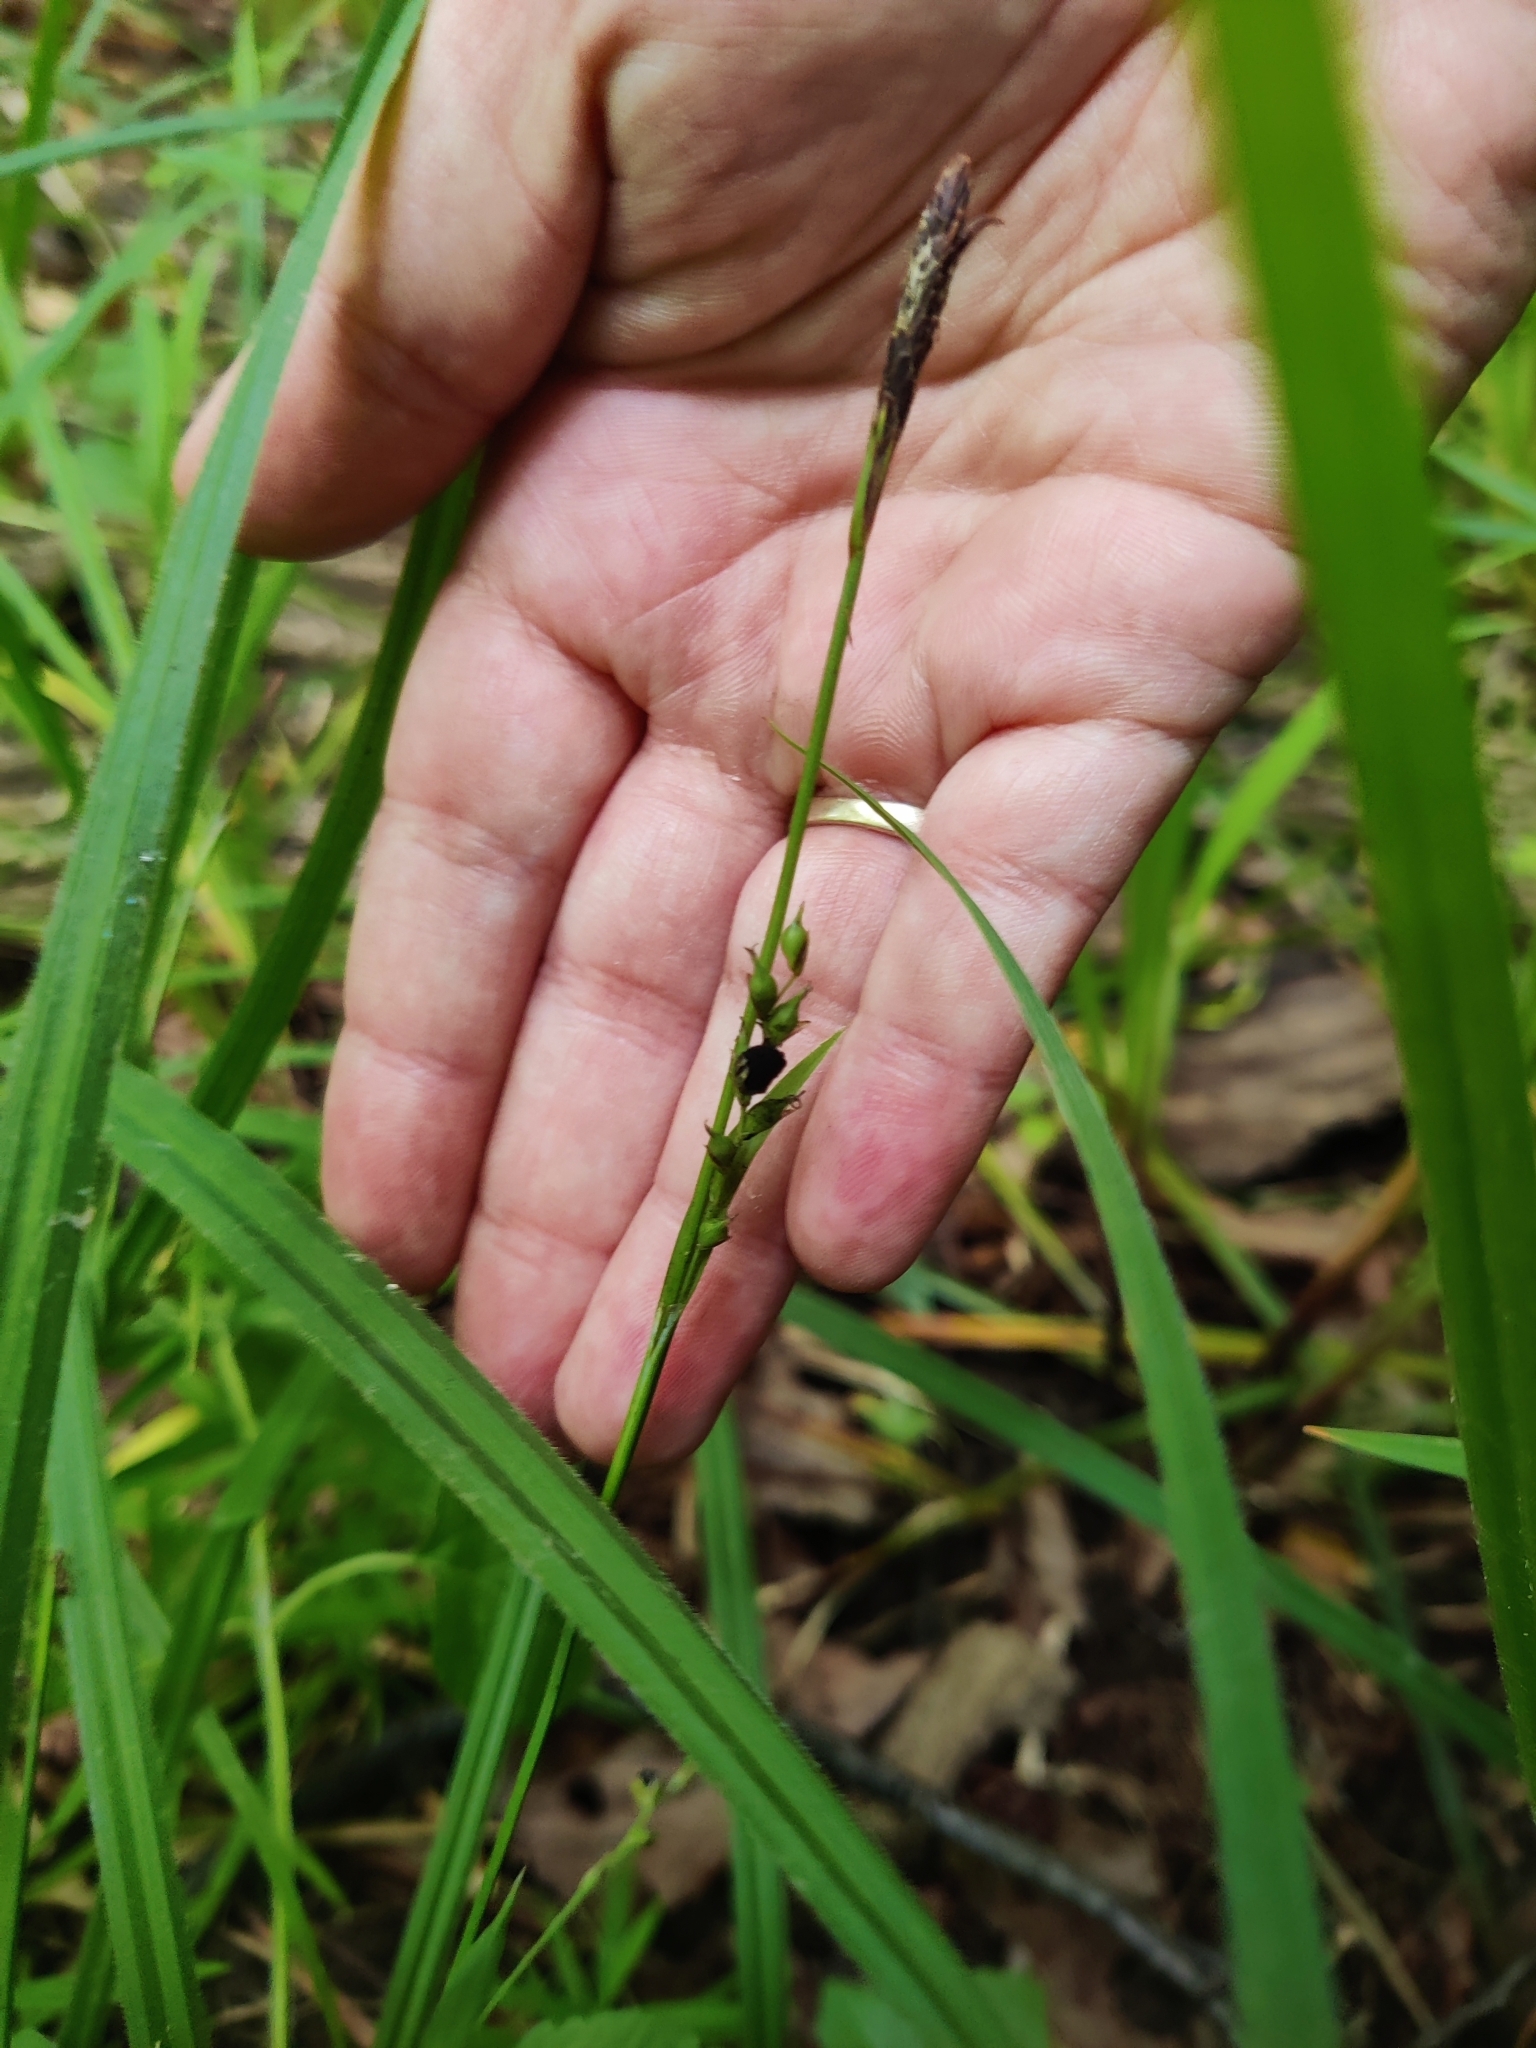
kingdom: Plantae
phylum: Tracheophyta
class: Liliopsida
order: Poales
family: Cyperaceae
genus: Carex
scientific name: Carex pilosa
